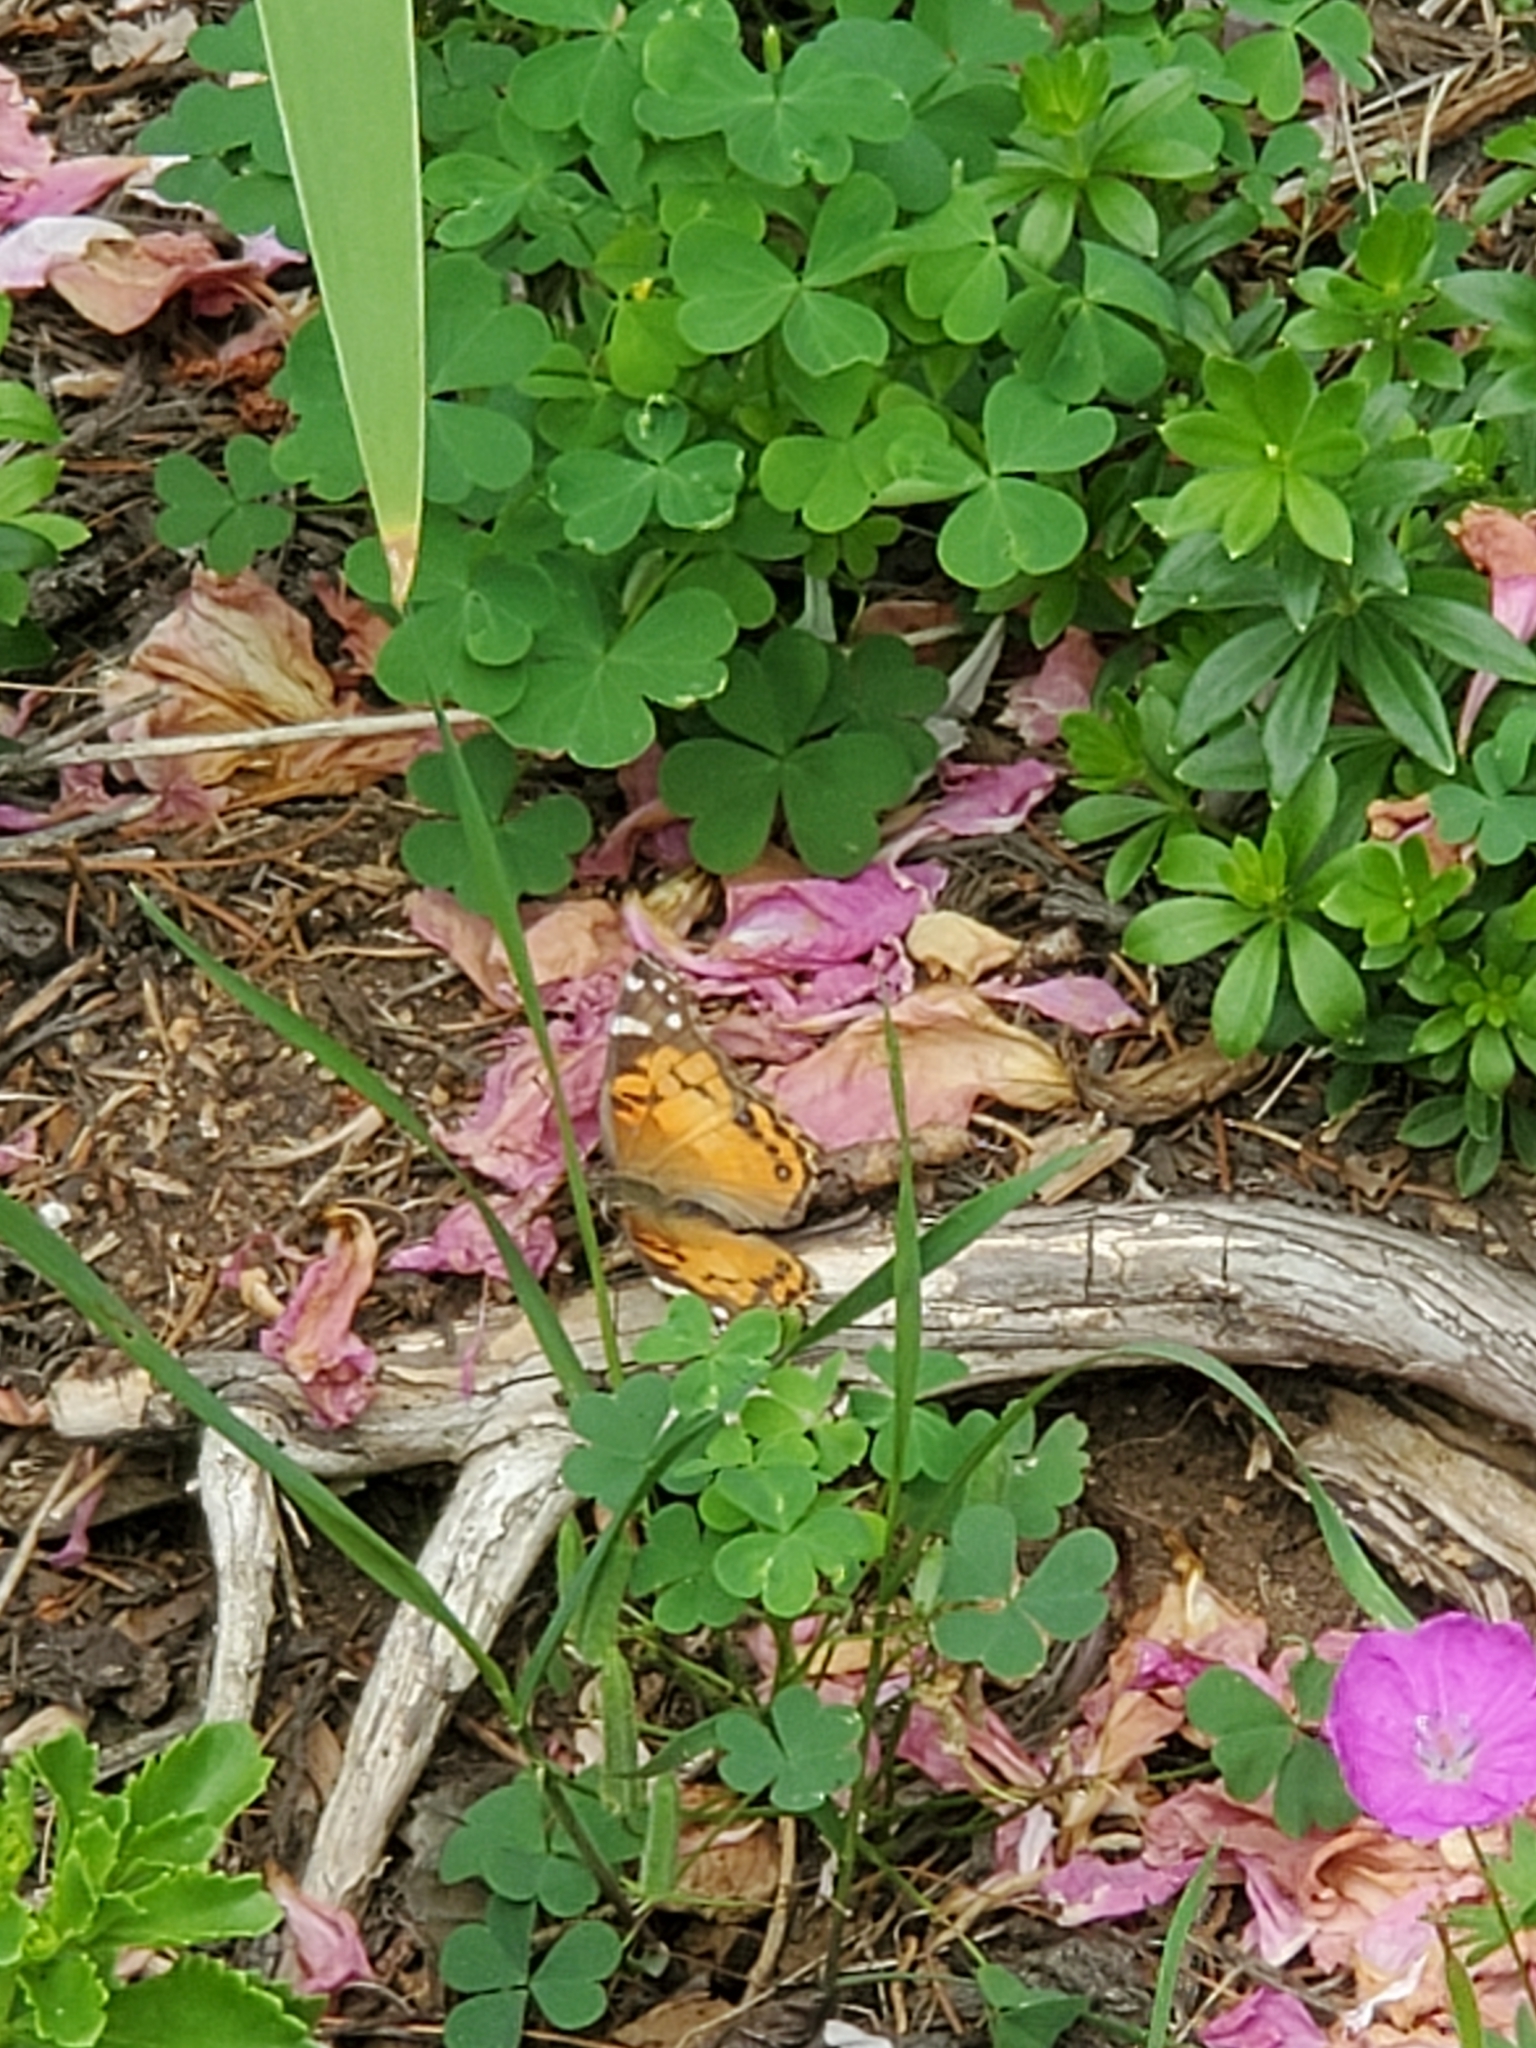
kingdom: Animalia
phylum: Arthropoda
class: Insecta
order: Lepidoptera
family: Nymphalidae
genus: Vanessa
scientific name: Vanessa virginiensis
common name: American lady
